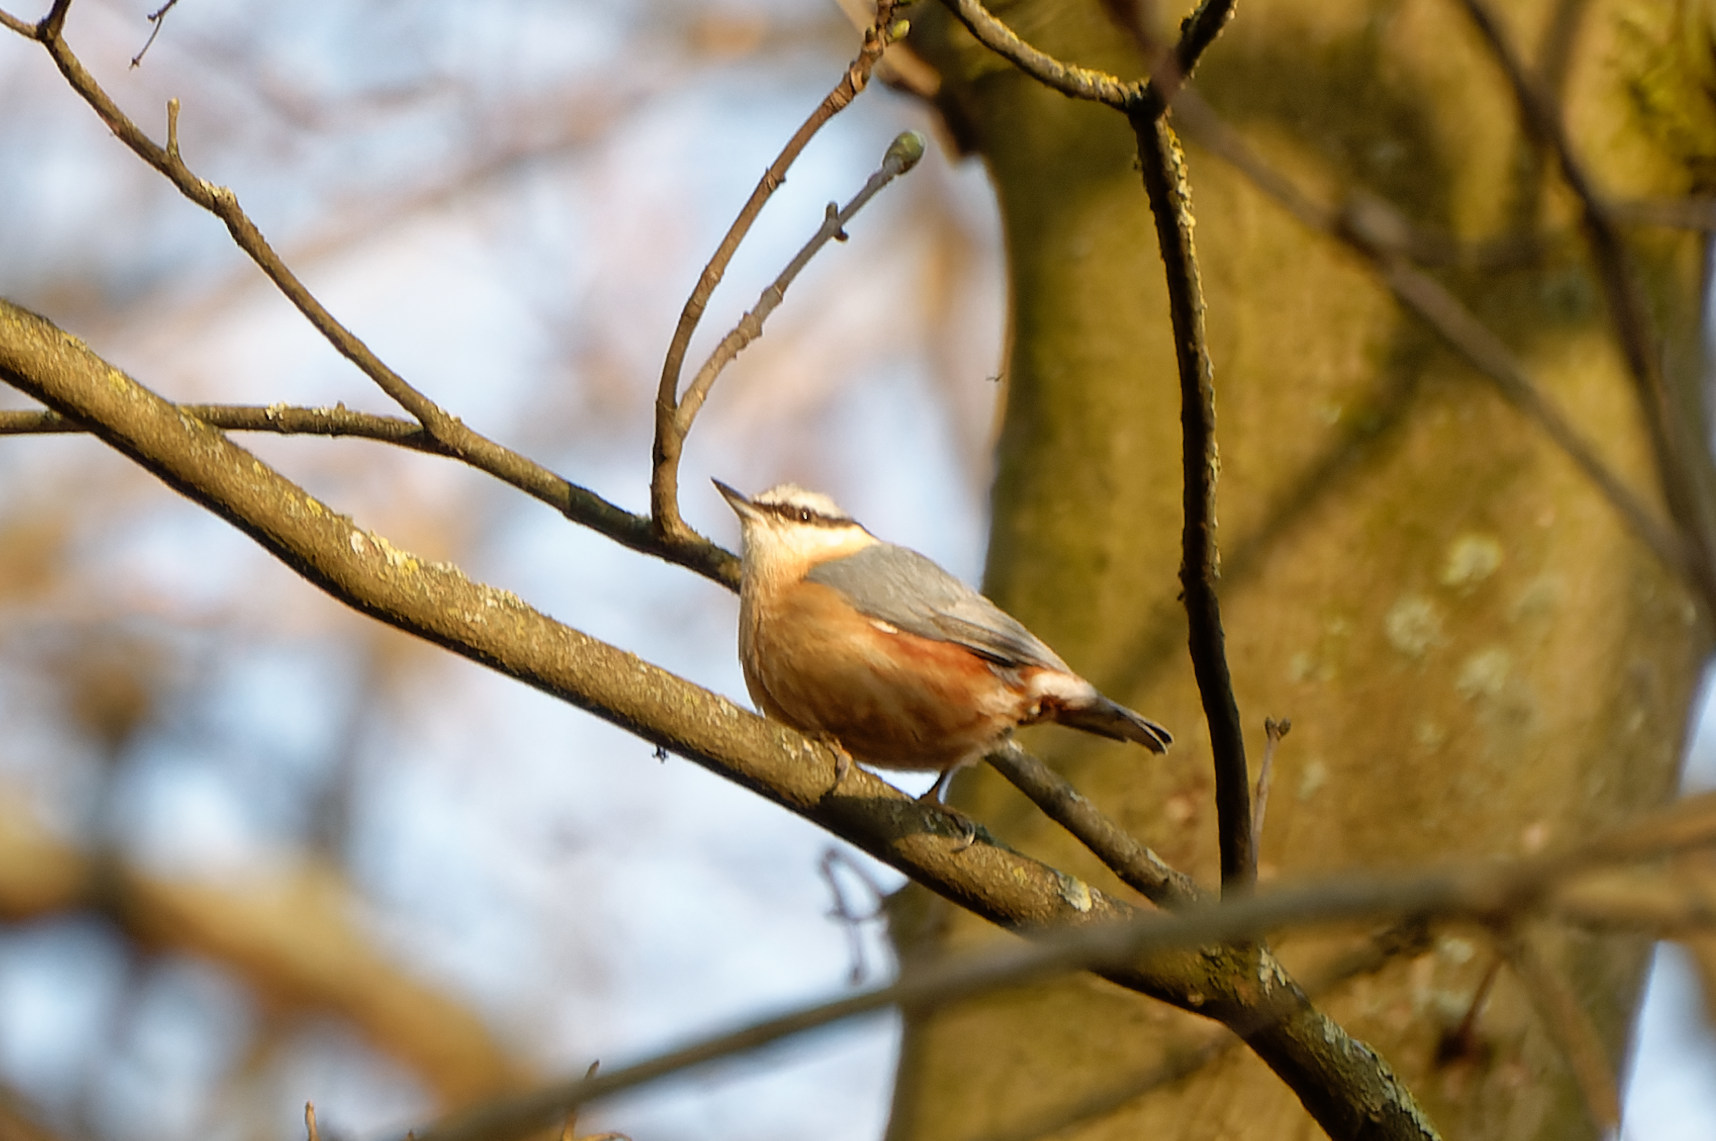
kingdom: Animalia
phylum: Chordata
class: Aves
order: Passeriformes
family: Sittidae
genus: Sitta
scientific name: Sitta europaea
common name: Eurasian nuthatch
